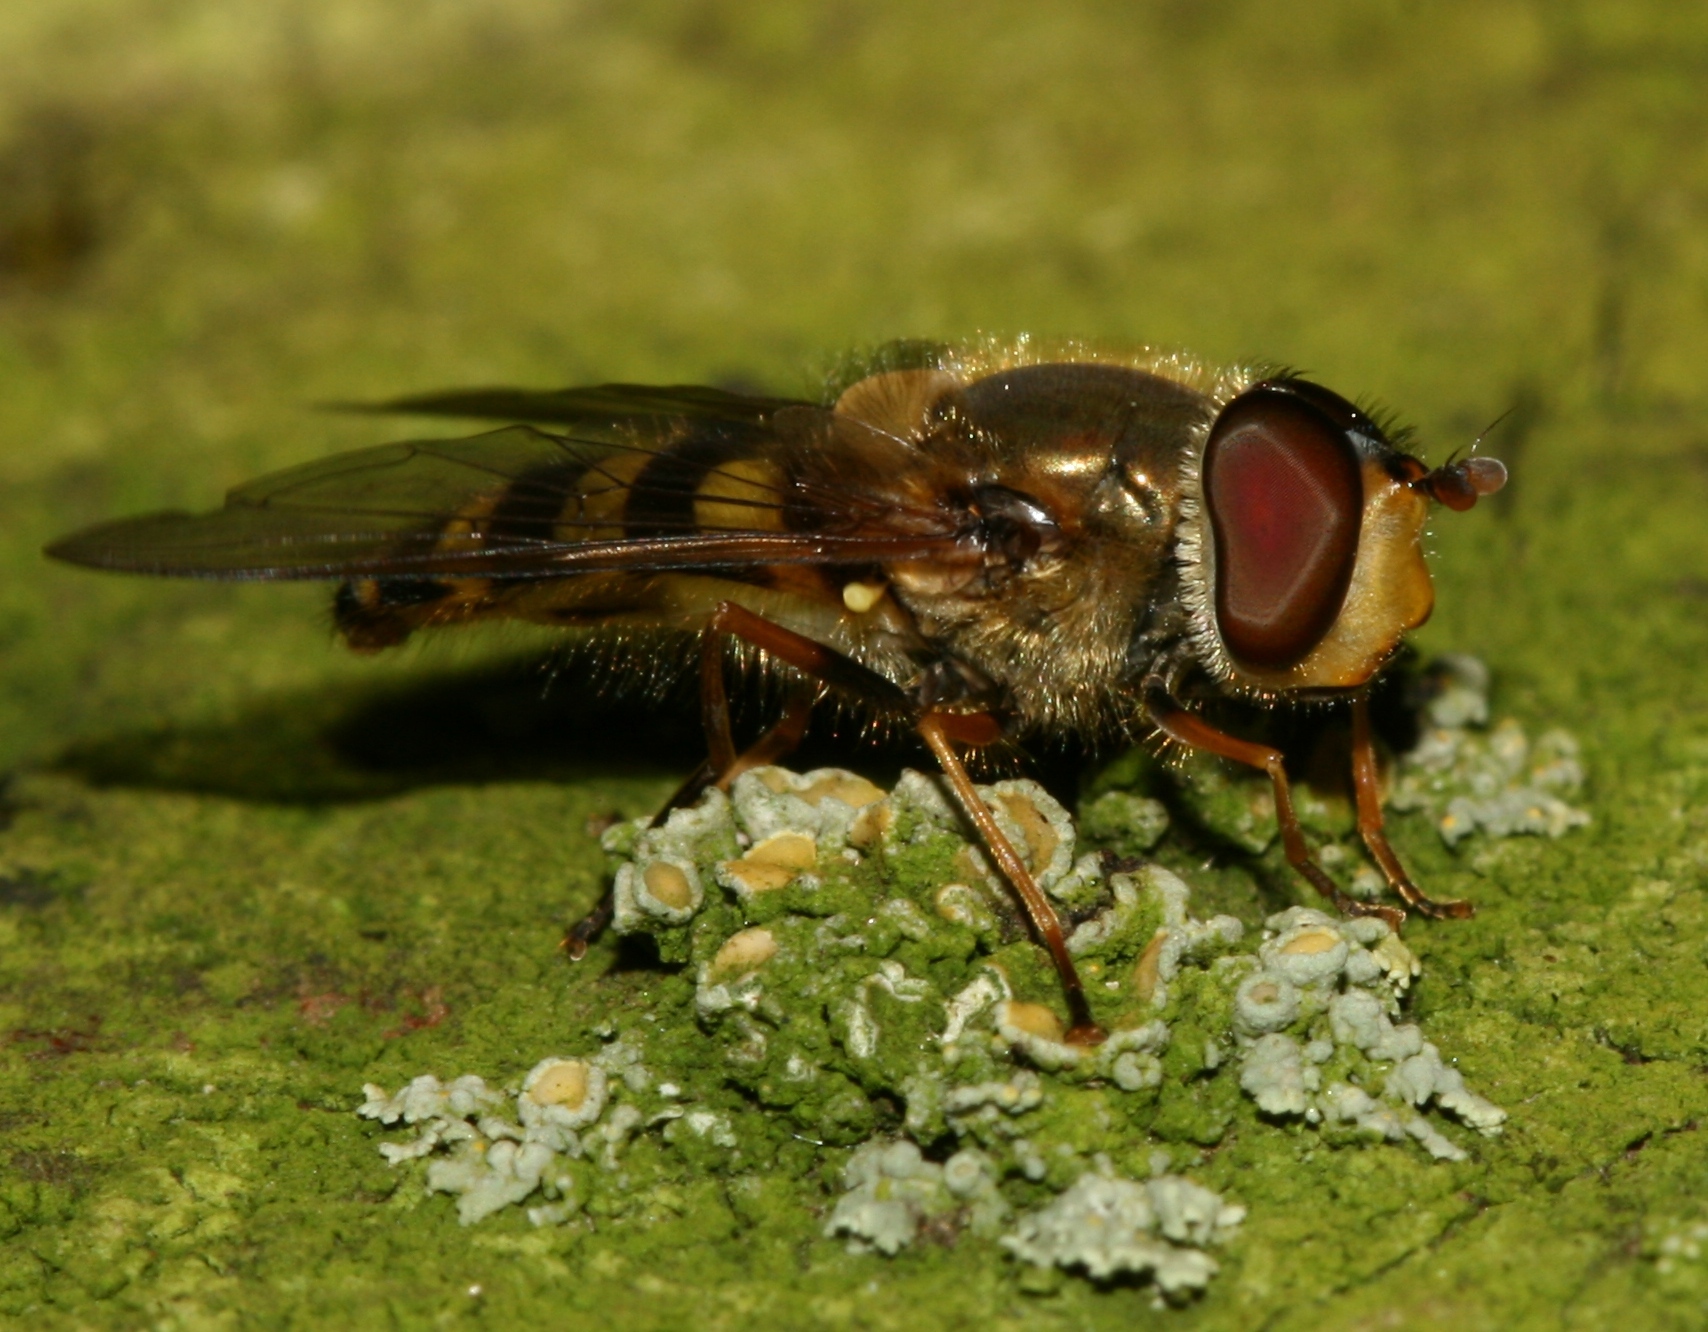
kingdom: Animalia
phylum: Arthropoda
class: Insecta
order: Diptera
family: Syrphidae
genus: Syrphus
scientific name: Syrphus
